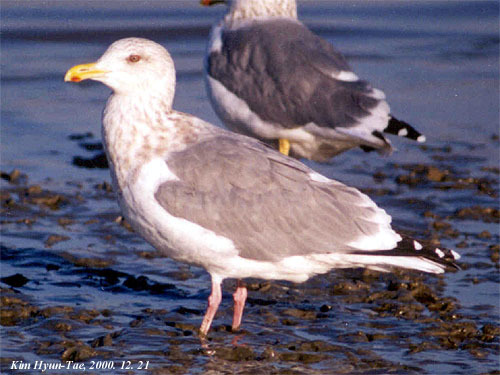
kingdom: Animalia
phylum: Chordata
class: Aves
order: Charadriiformes
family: Laridae
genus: Larus
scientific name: Larus vegae
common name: Vega gull
